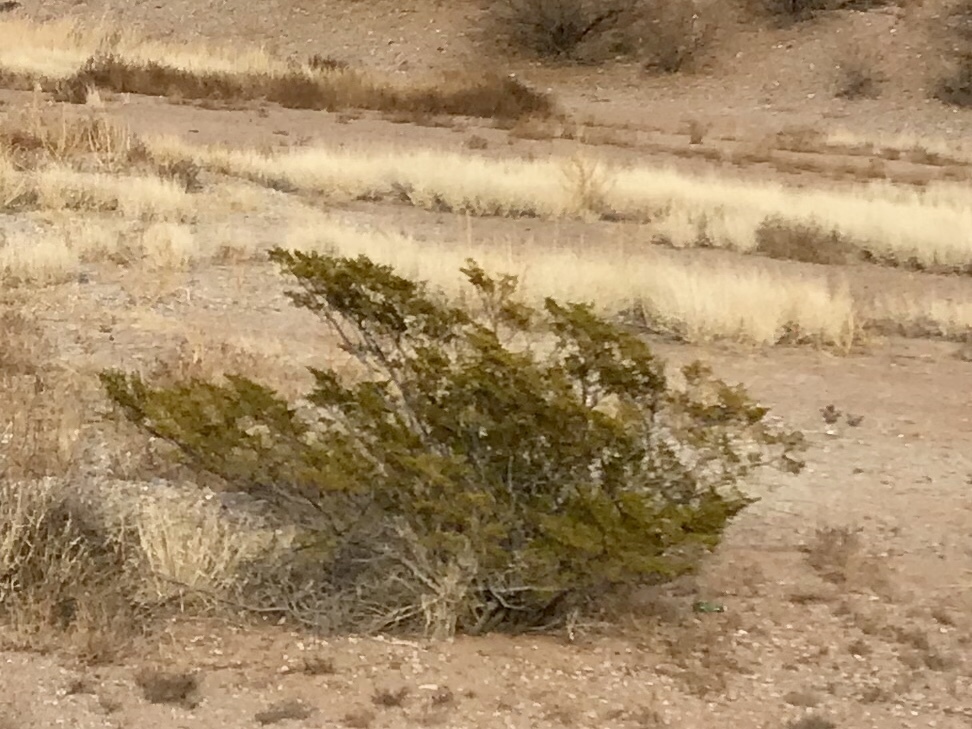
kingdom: Plantae
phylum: Tracheophyta
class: Magnoliopsida
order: Zygophyllales
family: Zygophyllaceae
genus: Larrea
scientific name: Larrea tridentata
